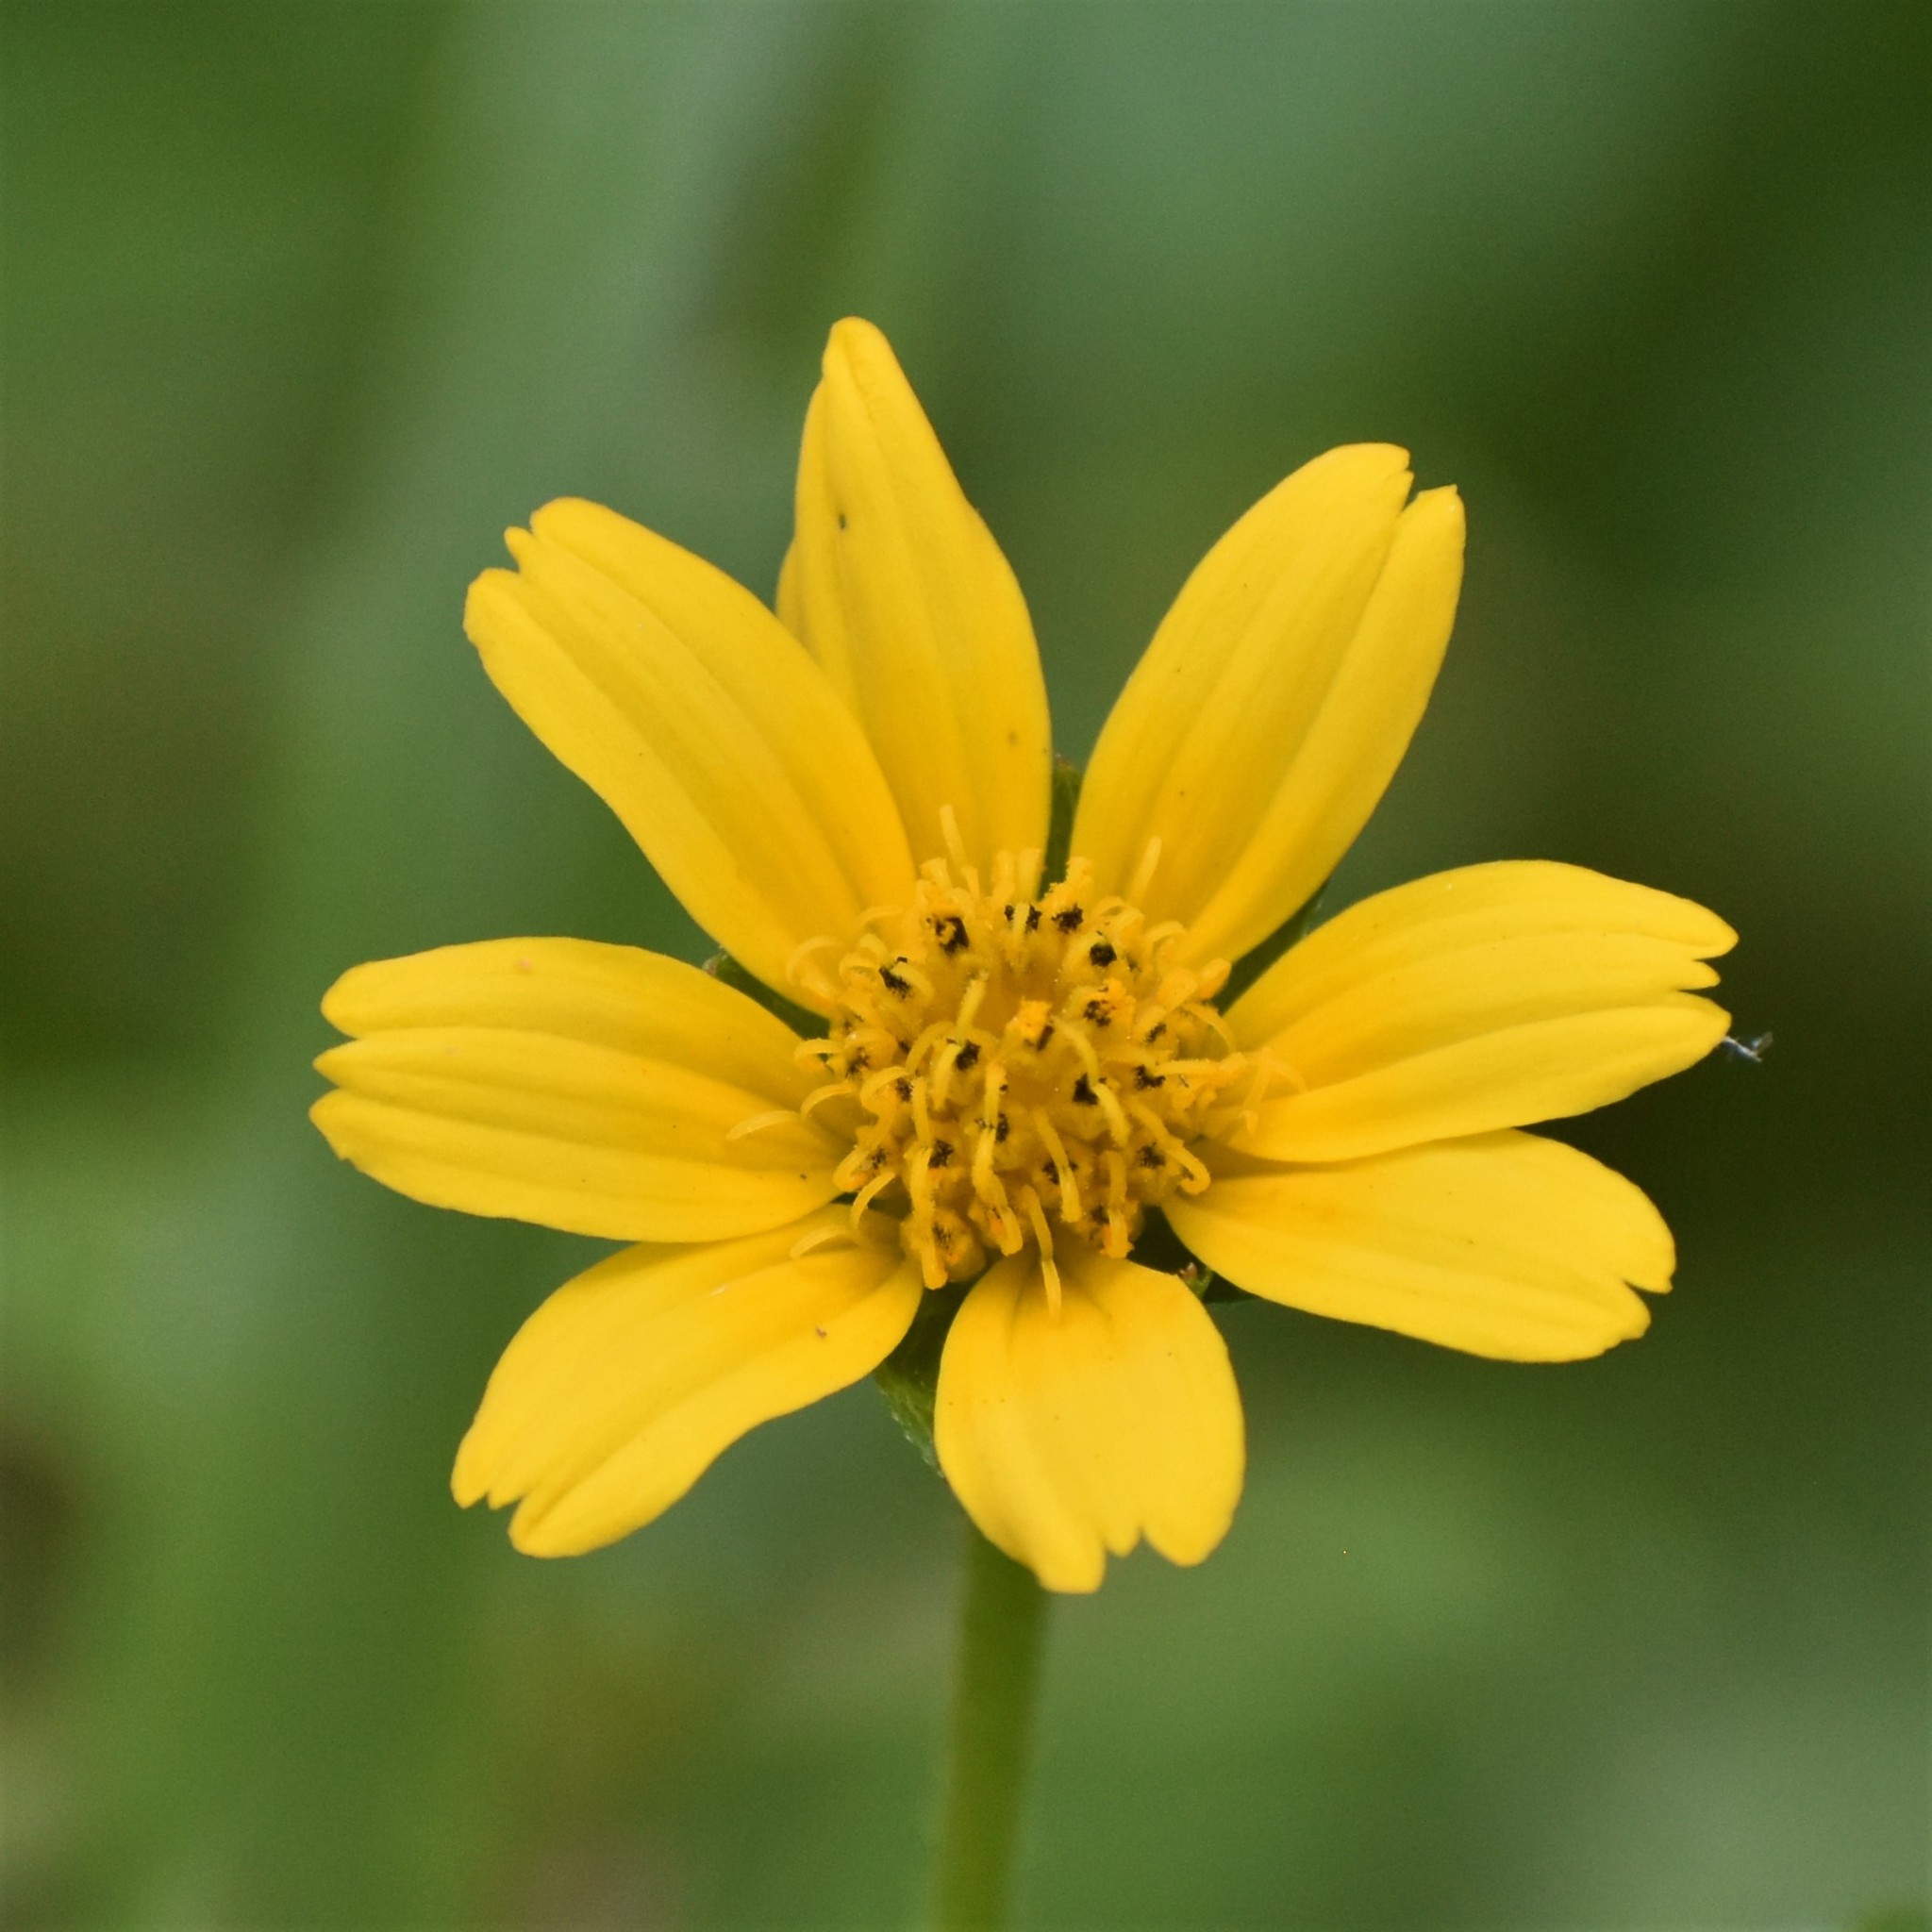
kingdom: Plantae
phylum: Tracheophyta
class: Magnoliopsida
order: Asterales
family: Asteraceae
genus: Sphagneticola
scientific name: Sphagneticola trilobata
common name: Bay biscayne creeping-oxeye
